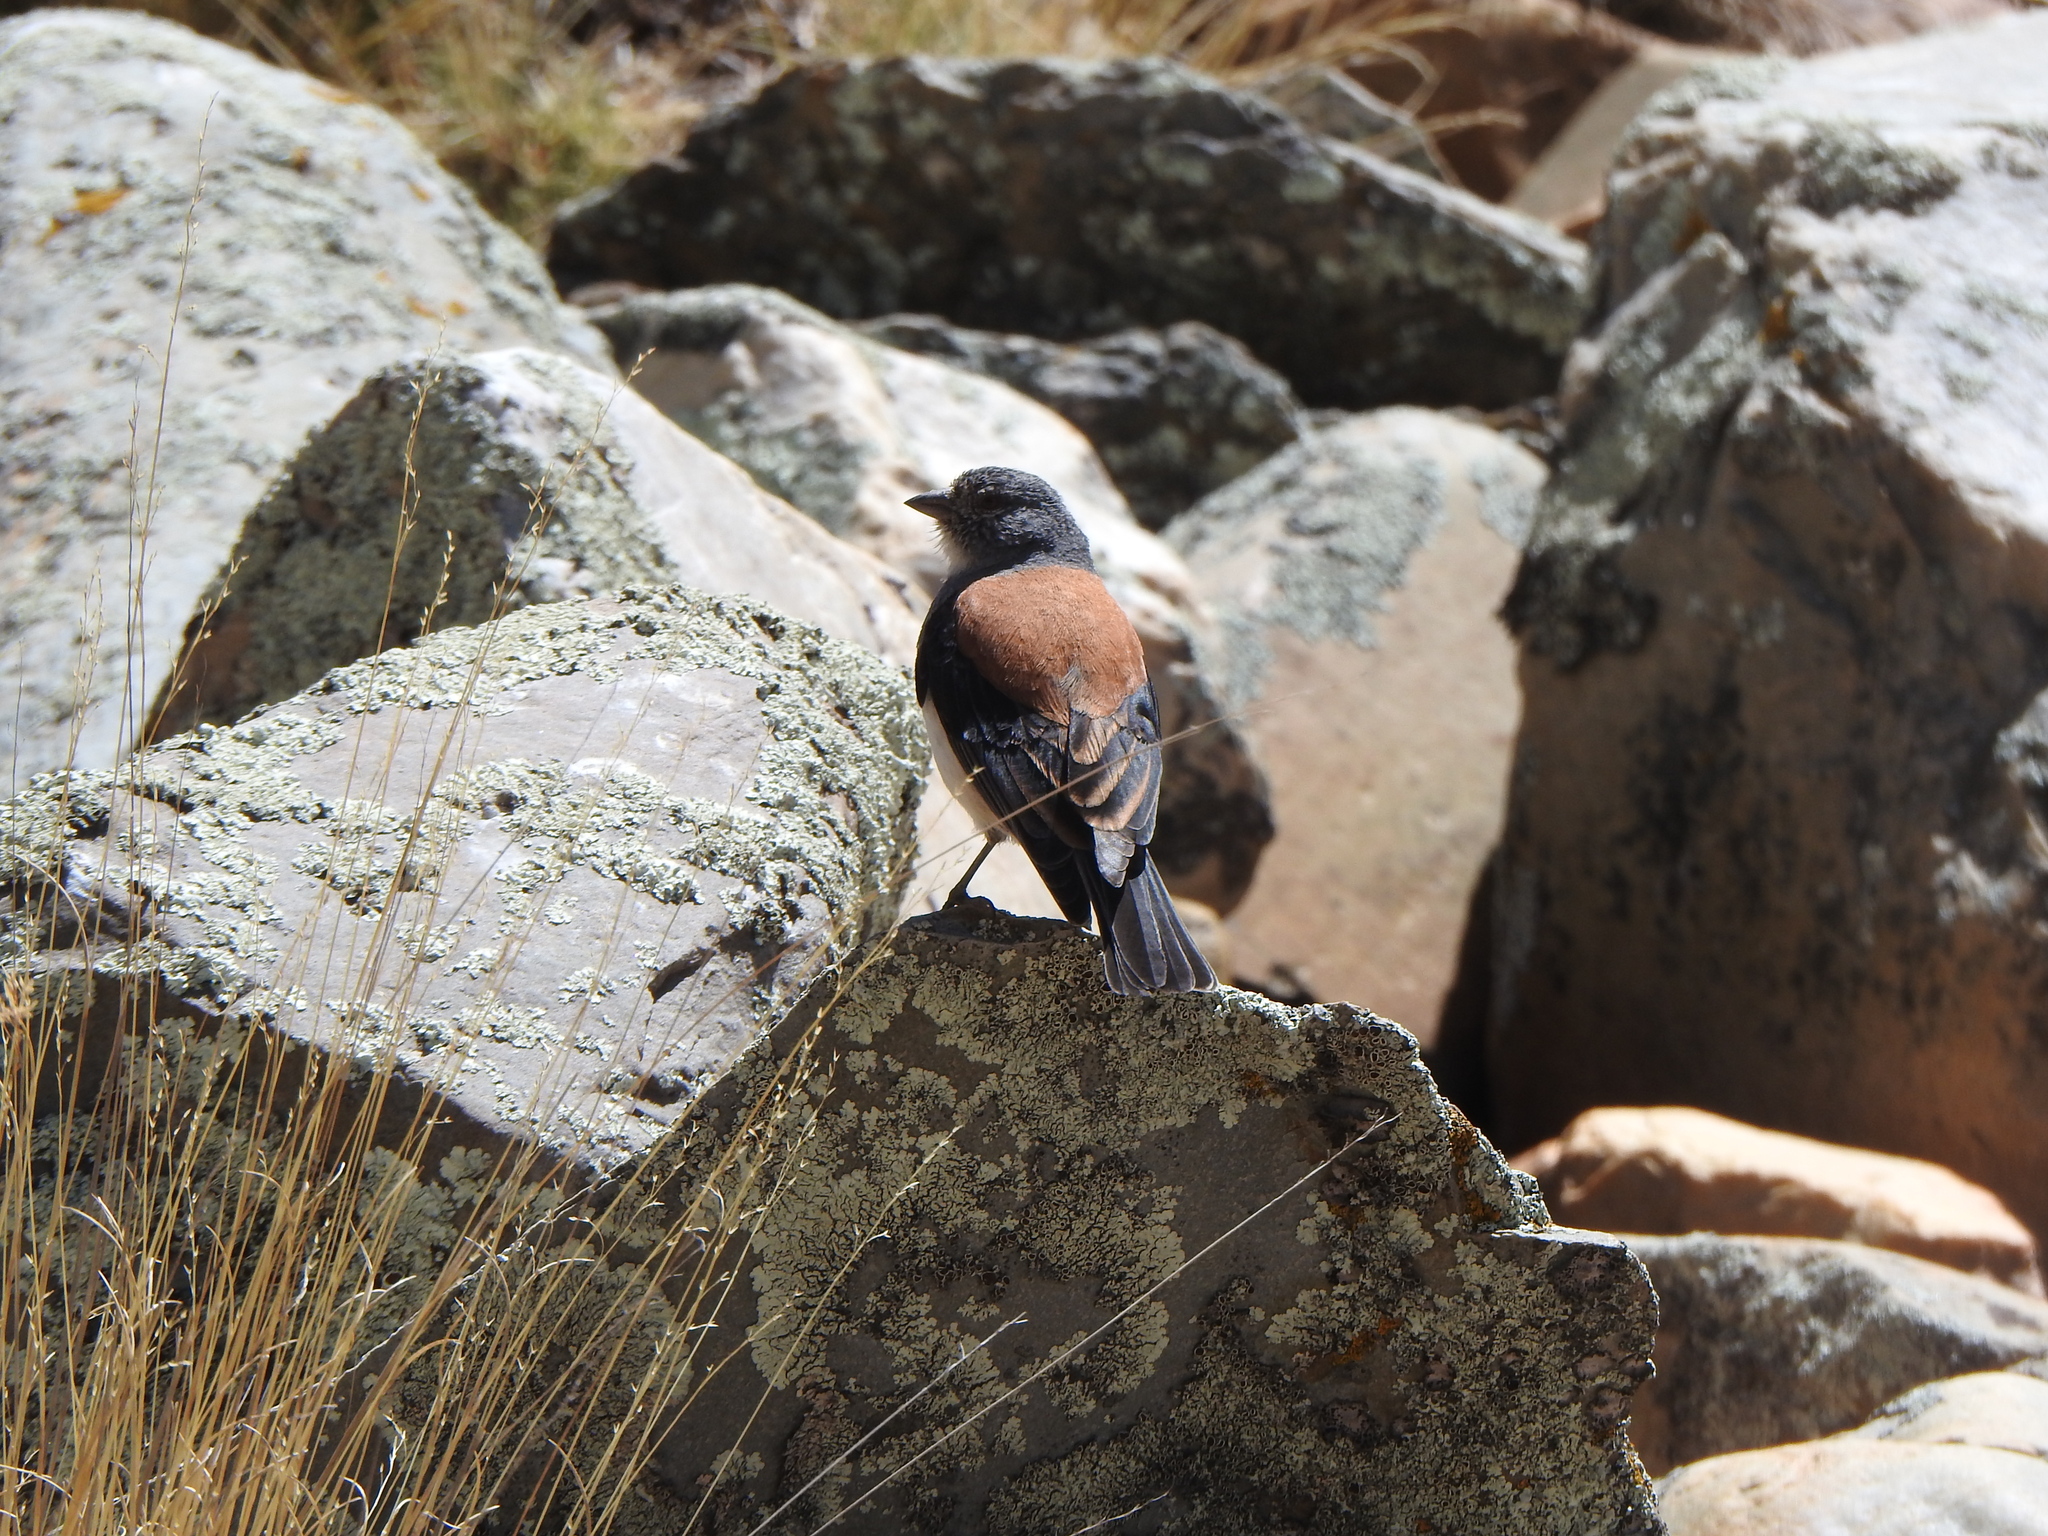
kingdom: Animalia
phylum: Chordata
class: Aves
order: Passeriformes
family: Thraupidae
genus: Idiopsar
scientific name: Idiopsar dorsalis
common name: Red-backed sierra finch
